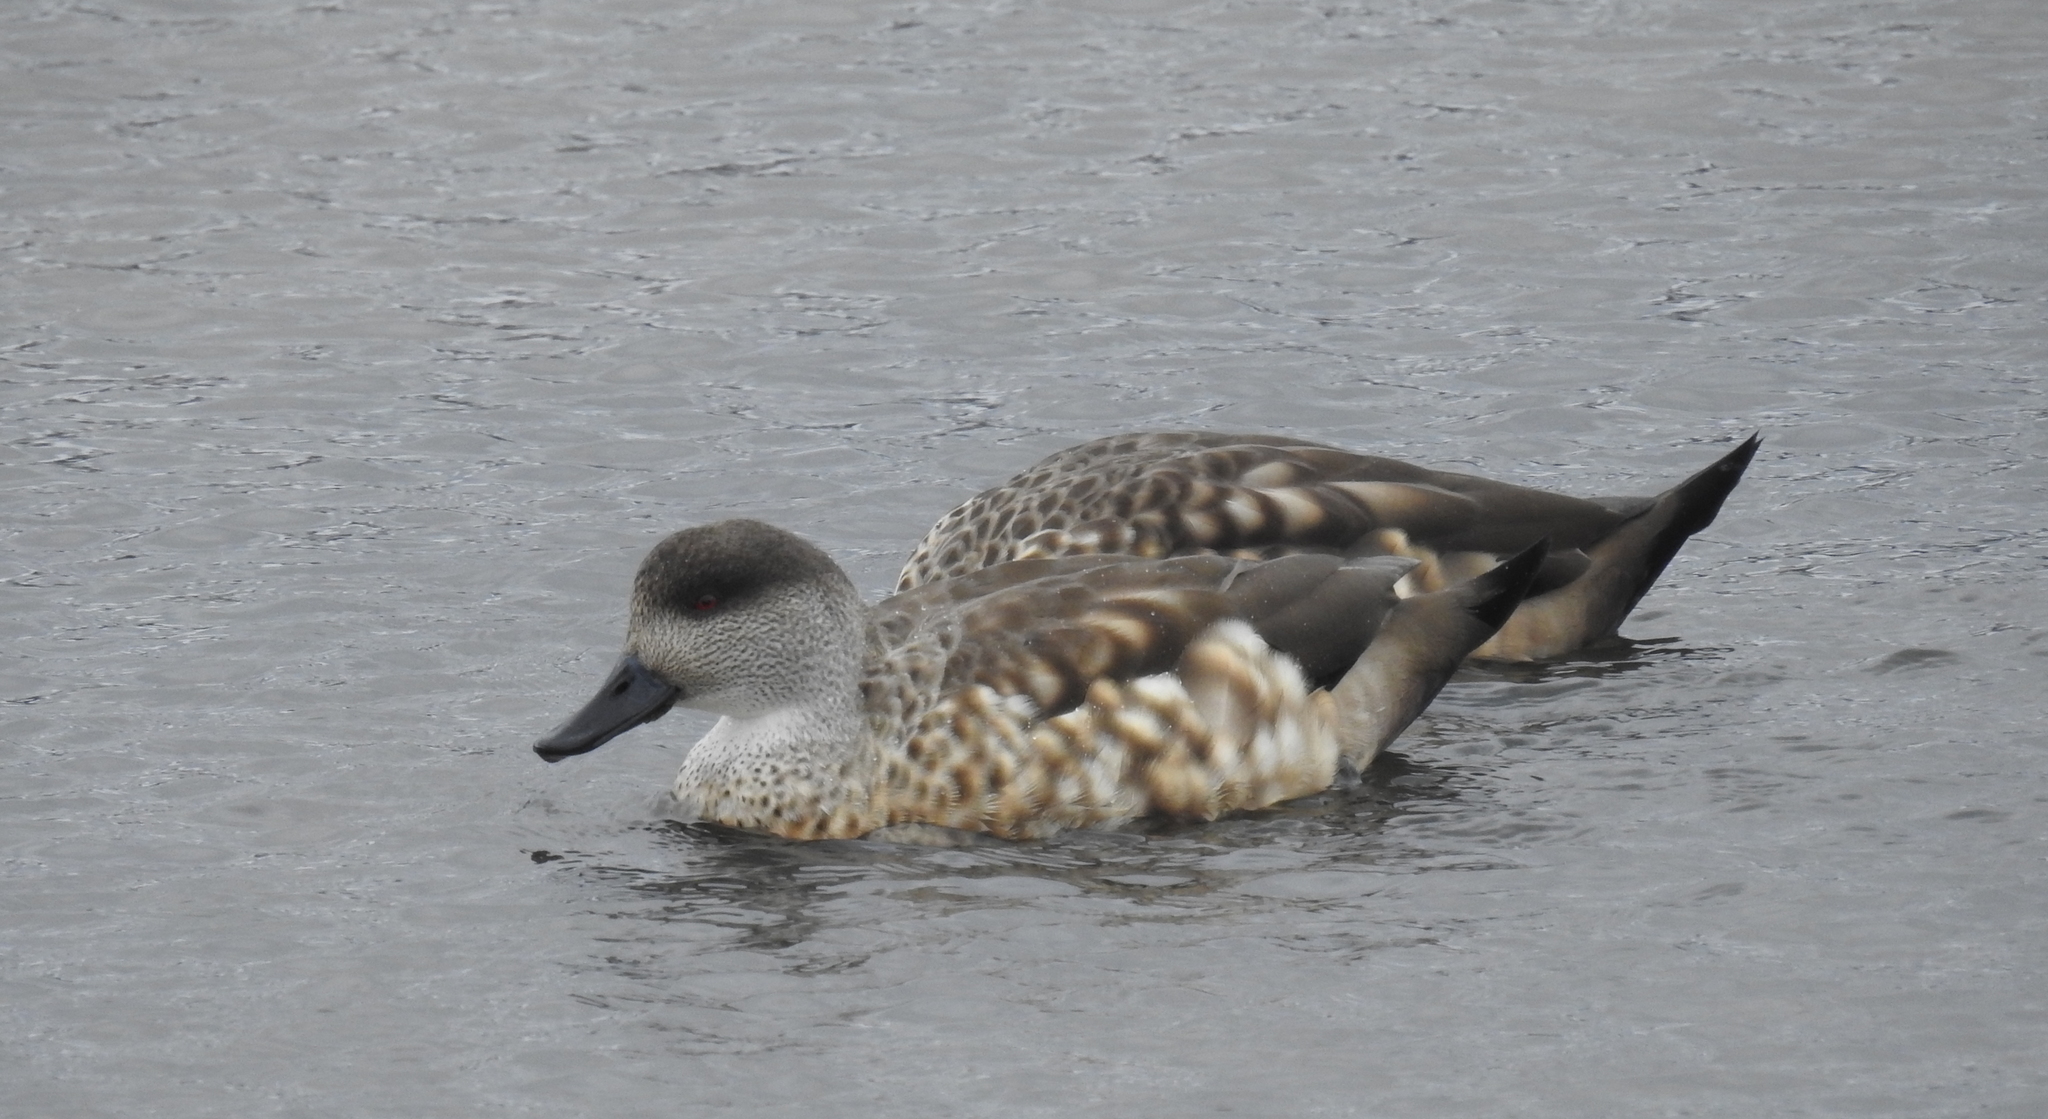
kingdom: Animalia
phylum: Chordata
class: Aves
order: Anseriformes
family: Anatidae
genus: Lophonetta
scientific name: Lophonetta specularioides
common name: Crested duck
